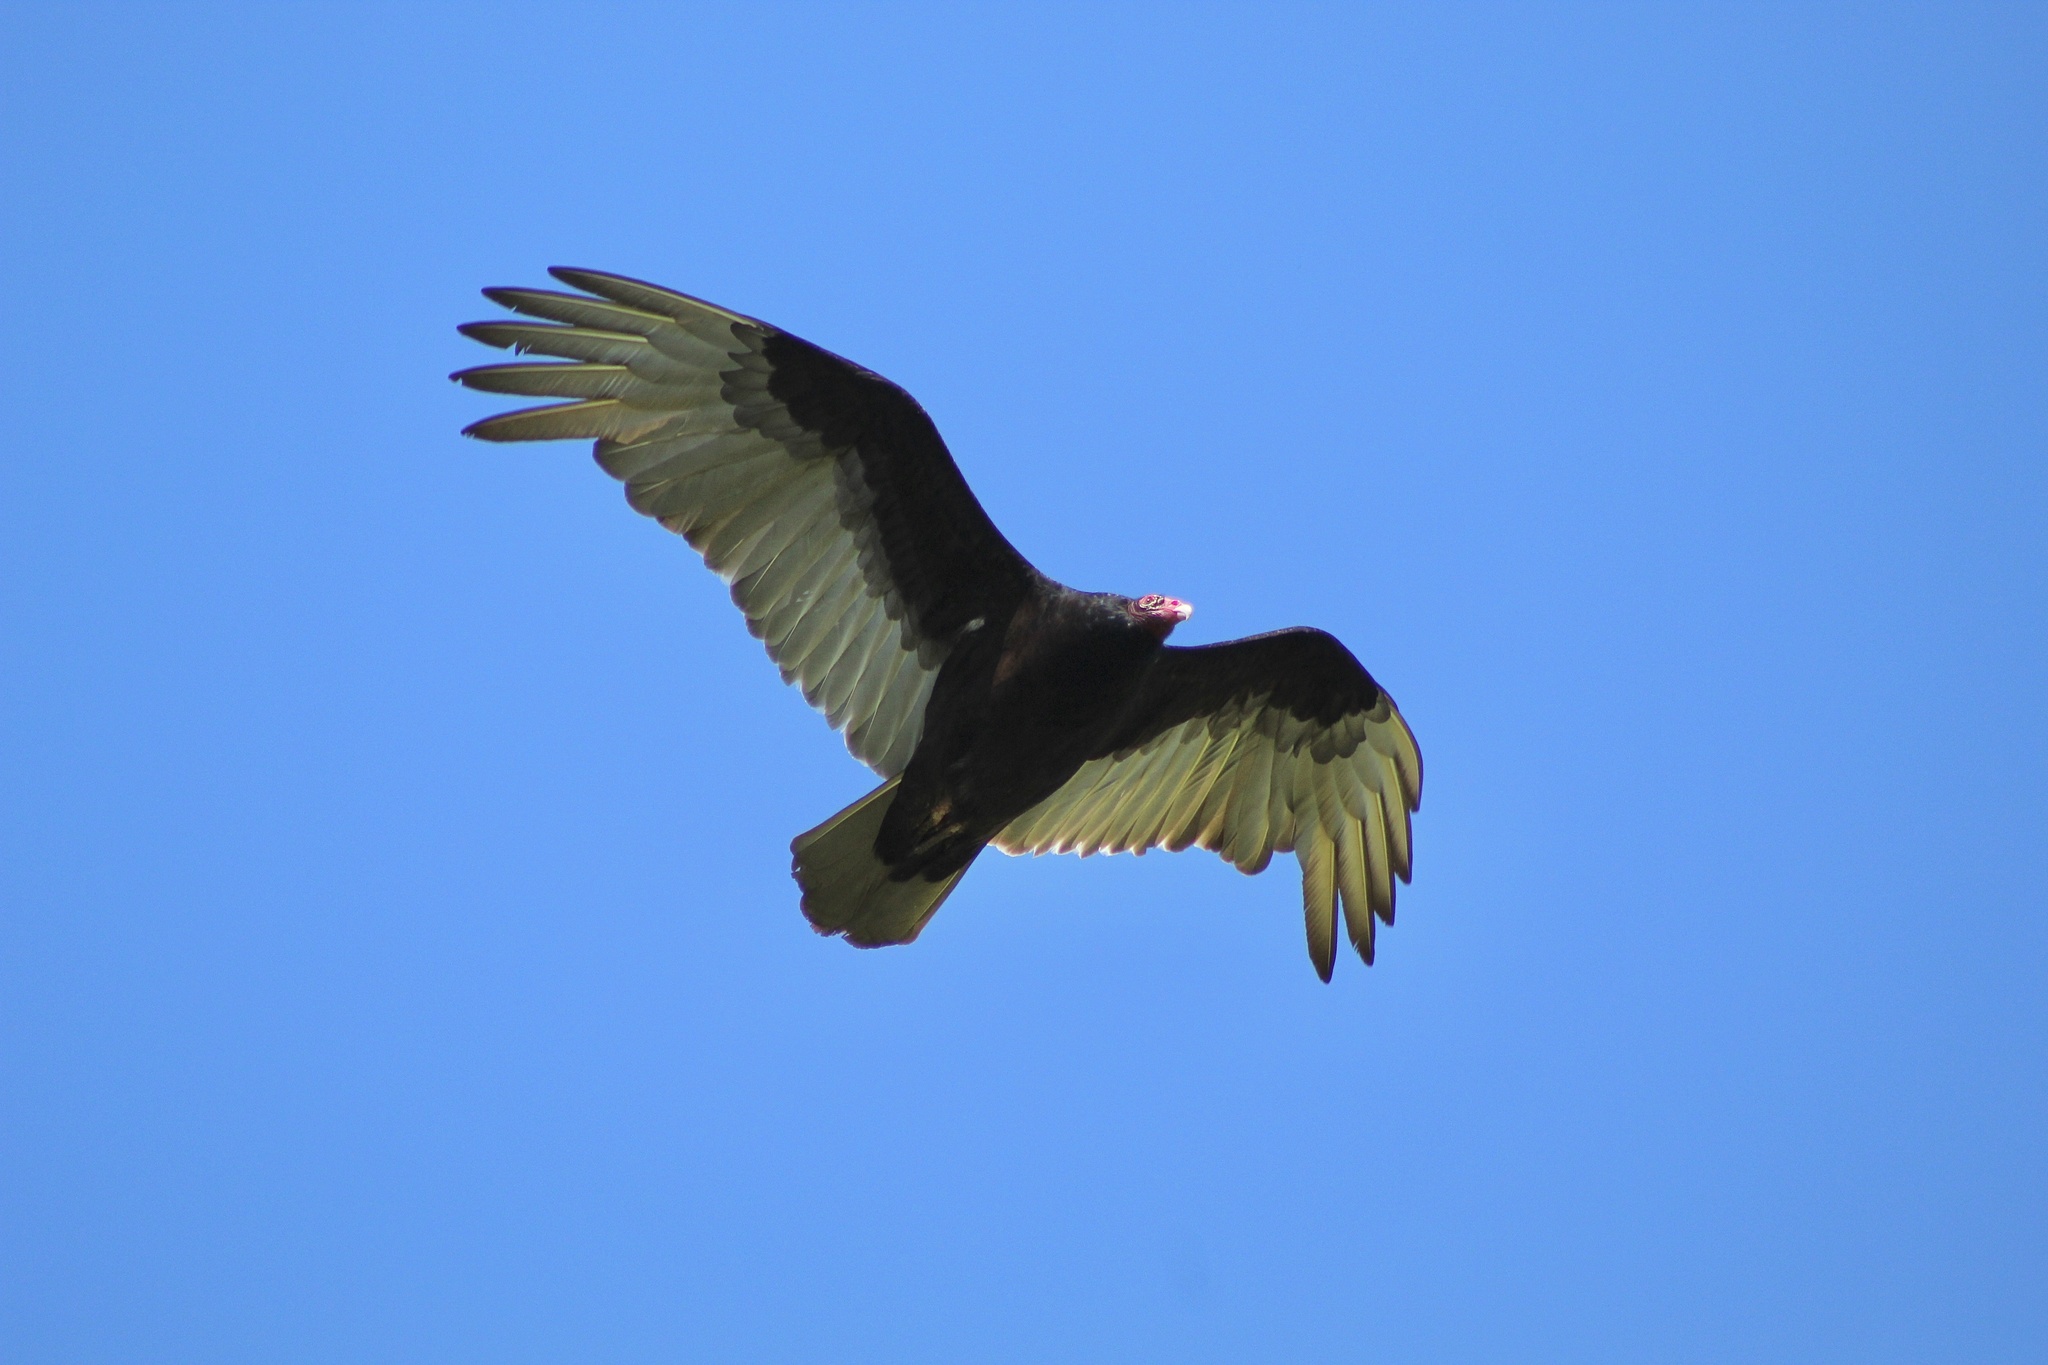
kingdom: Animalia
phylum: Chordata
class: Aves
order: Accipitriformes
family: Cathartidae
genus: Cathartes
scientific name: Cathartes aura
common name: Turkey vulture
